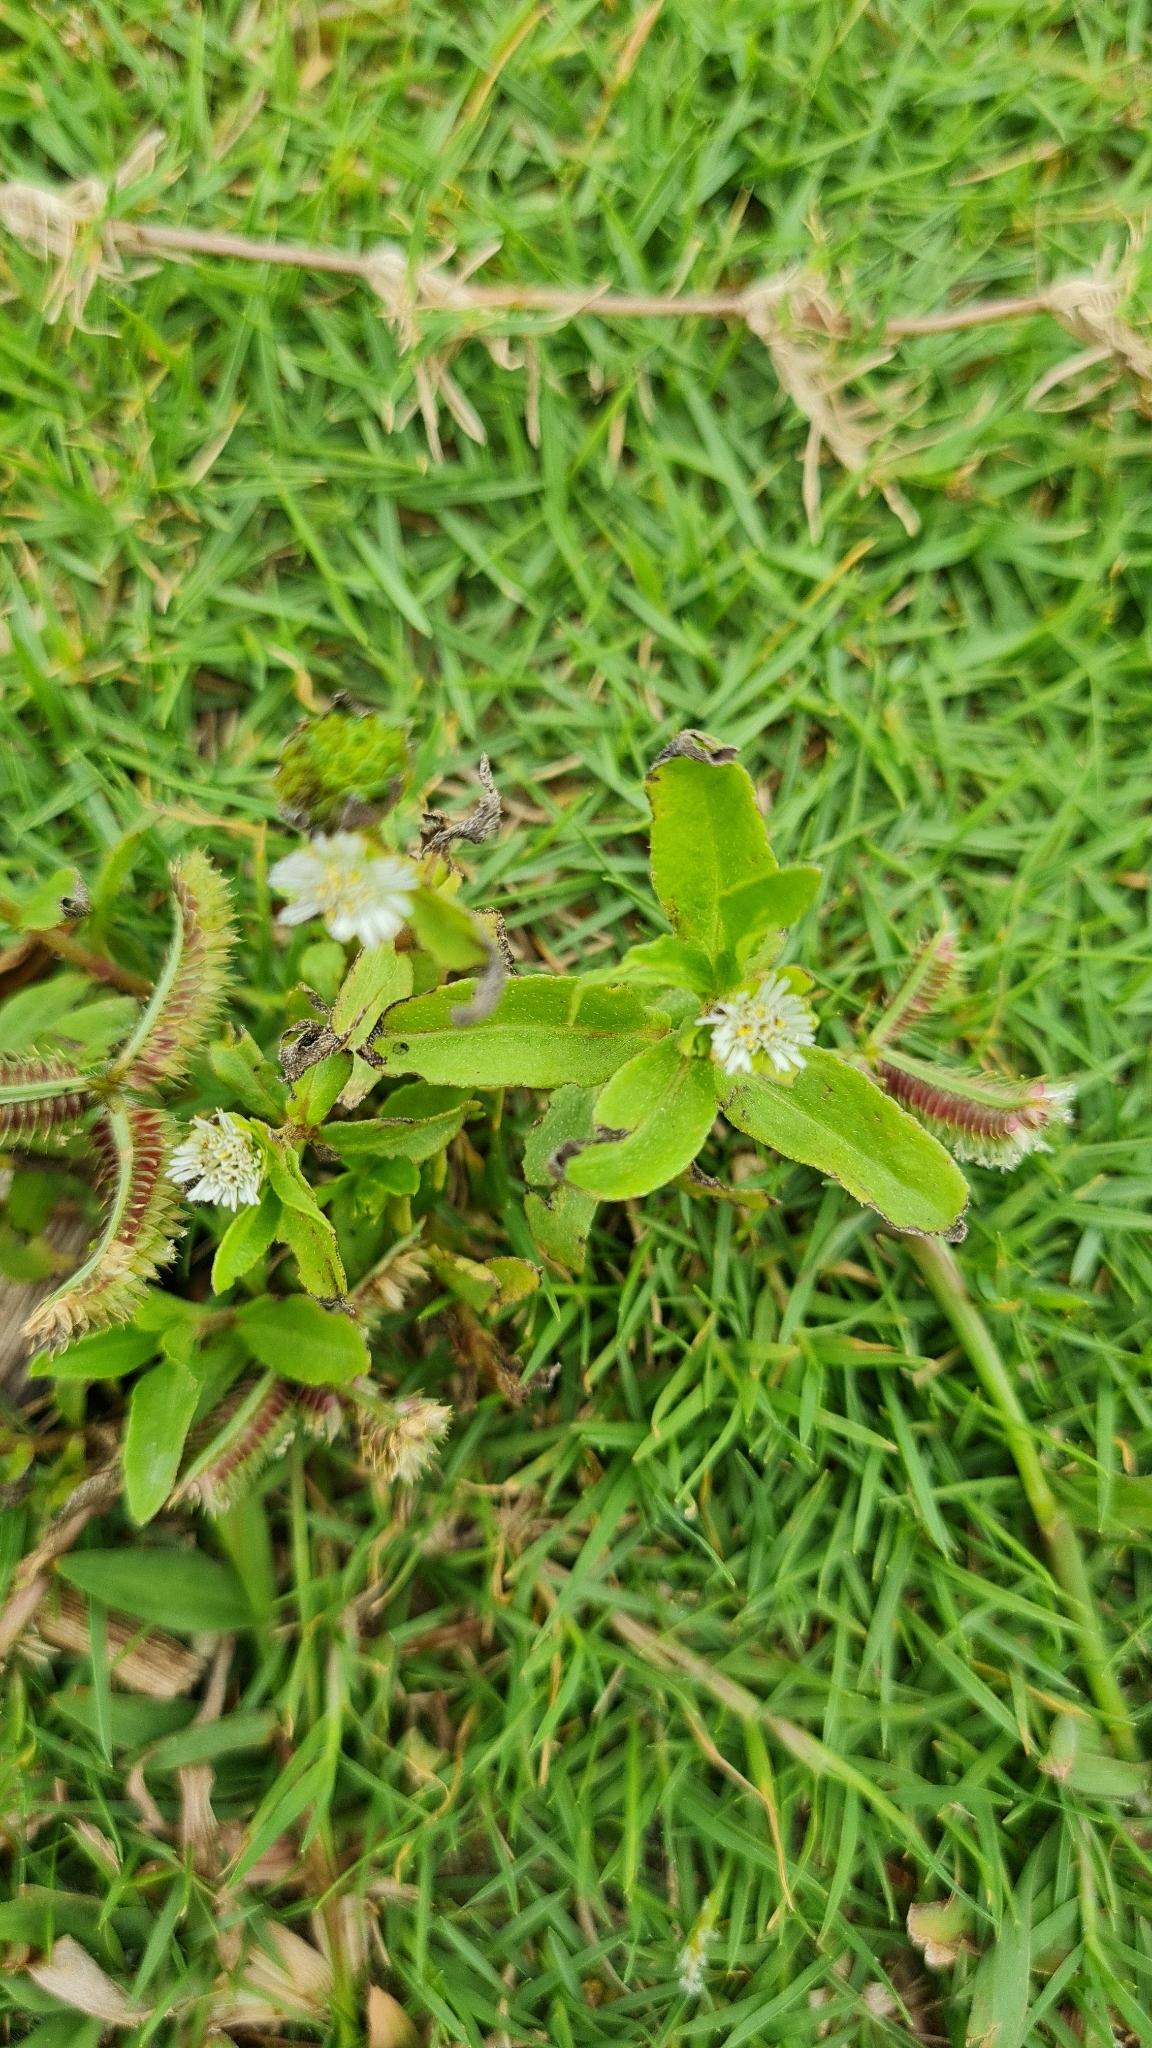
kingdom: Plantae
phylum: Tracheophyta
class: Magnoliopsida
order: Asterales
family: Asteraceae
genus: Eclipta
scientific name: Eclipta prostrata
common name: False daisy
